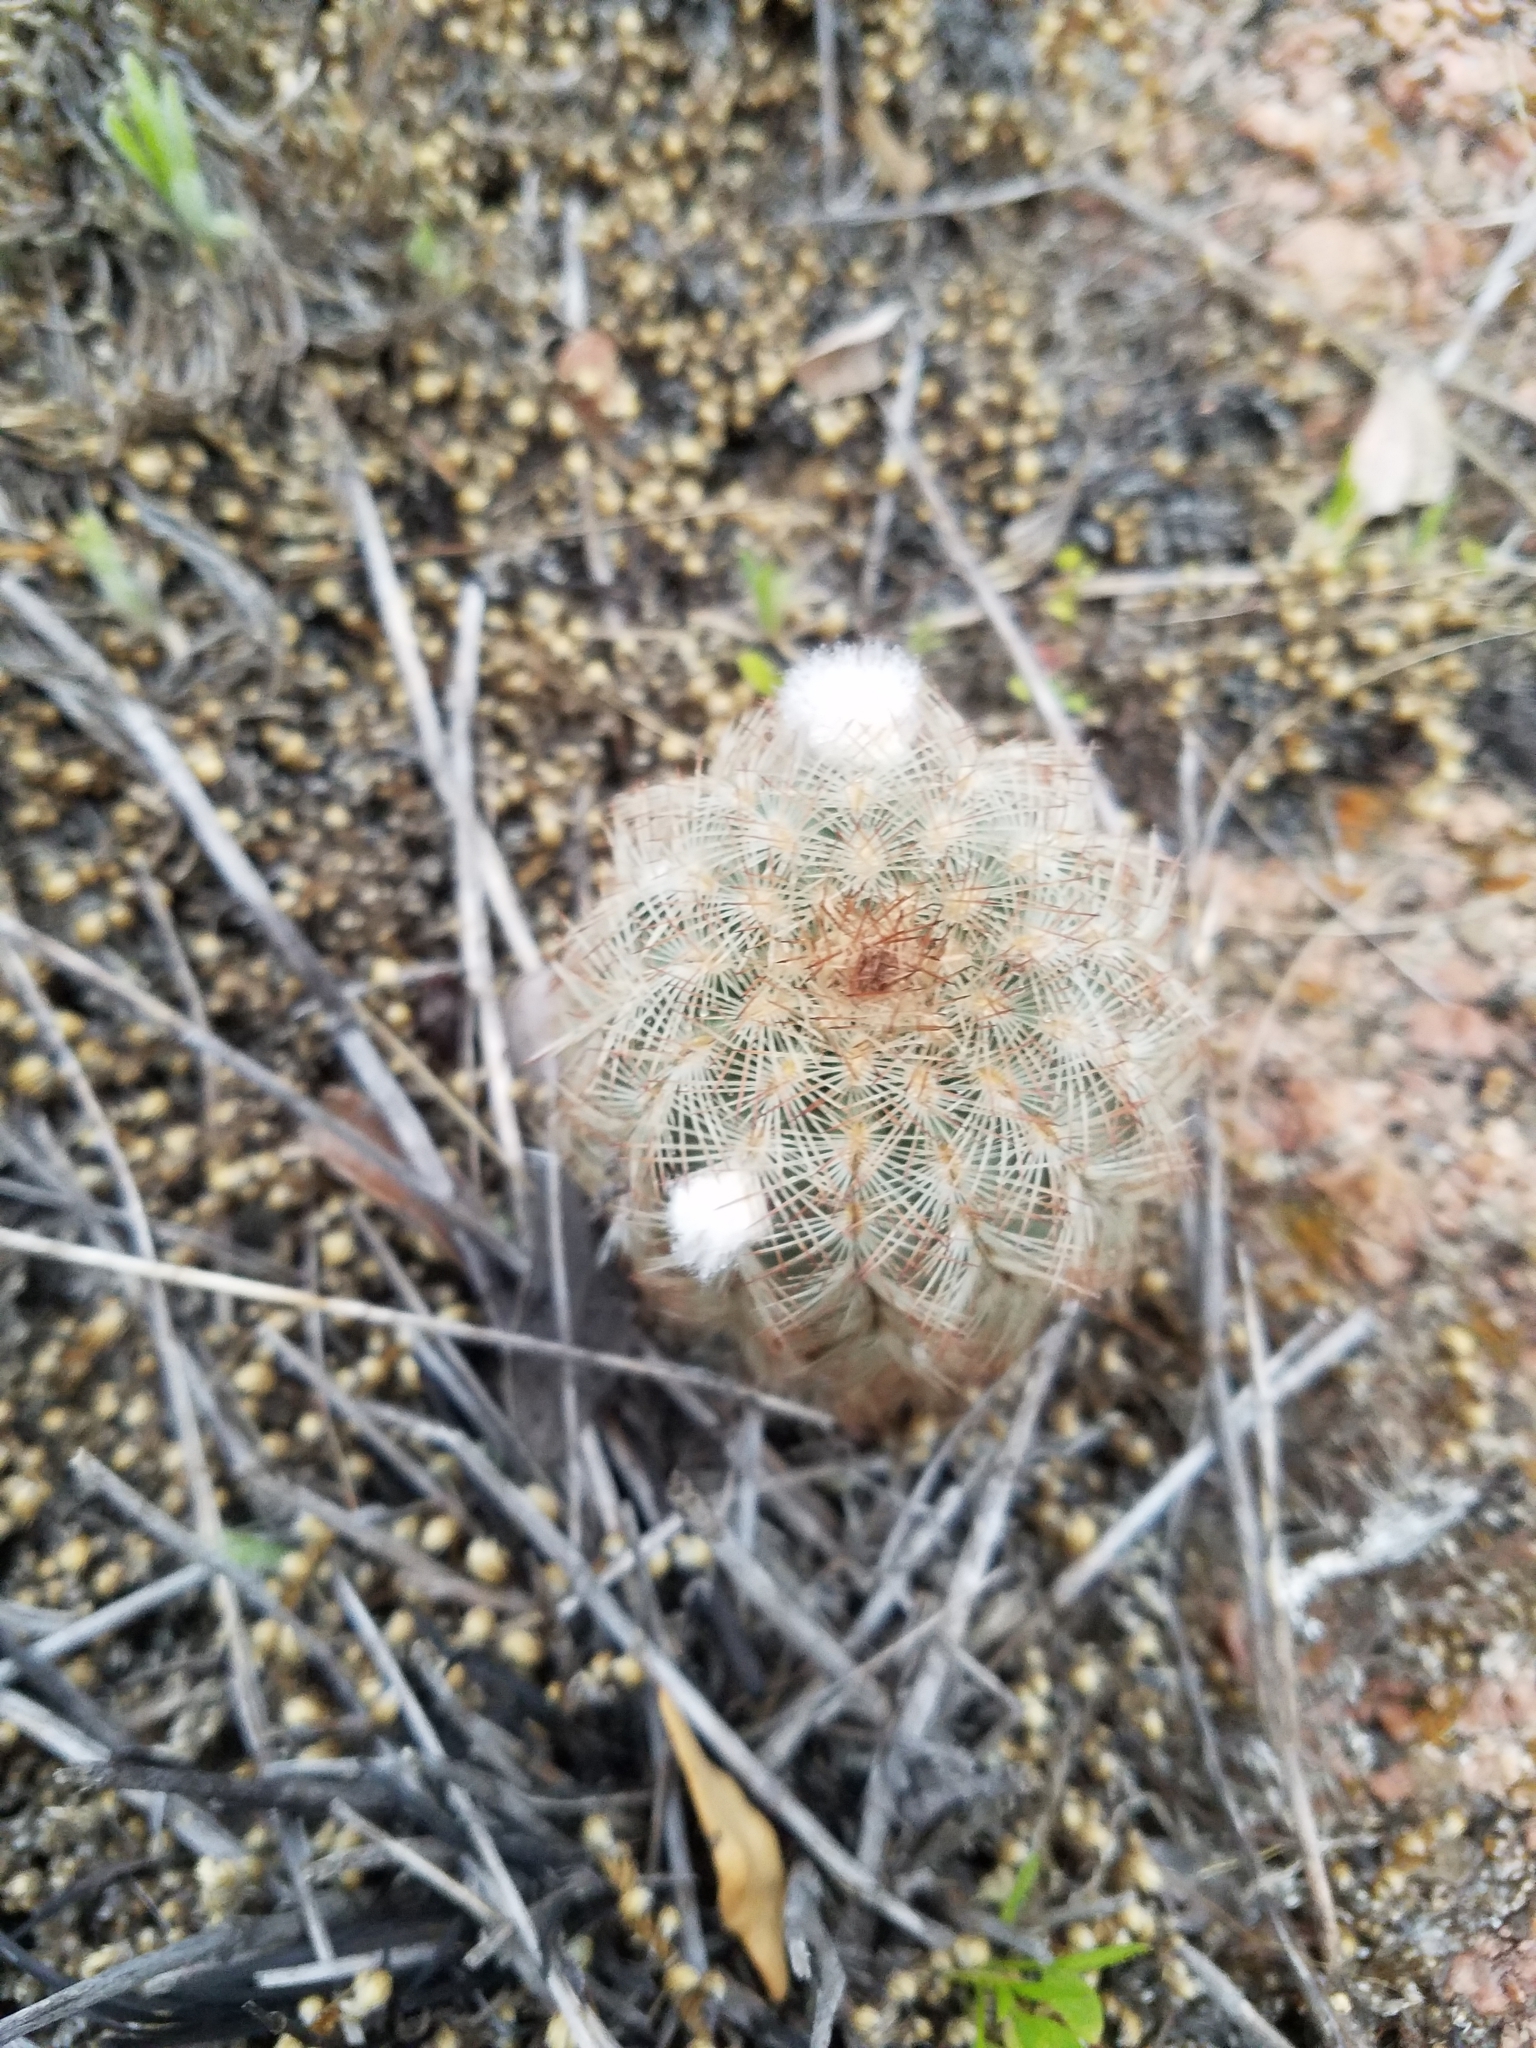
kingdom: Plantae
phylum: Tracheophyta
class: Magnoliopsida
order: Caryophyllales
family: Cactaceae
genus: Echinocereus
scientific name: Echinocereus reichenbachii
